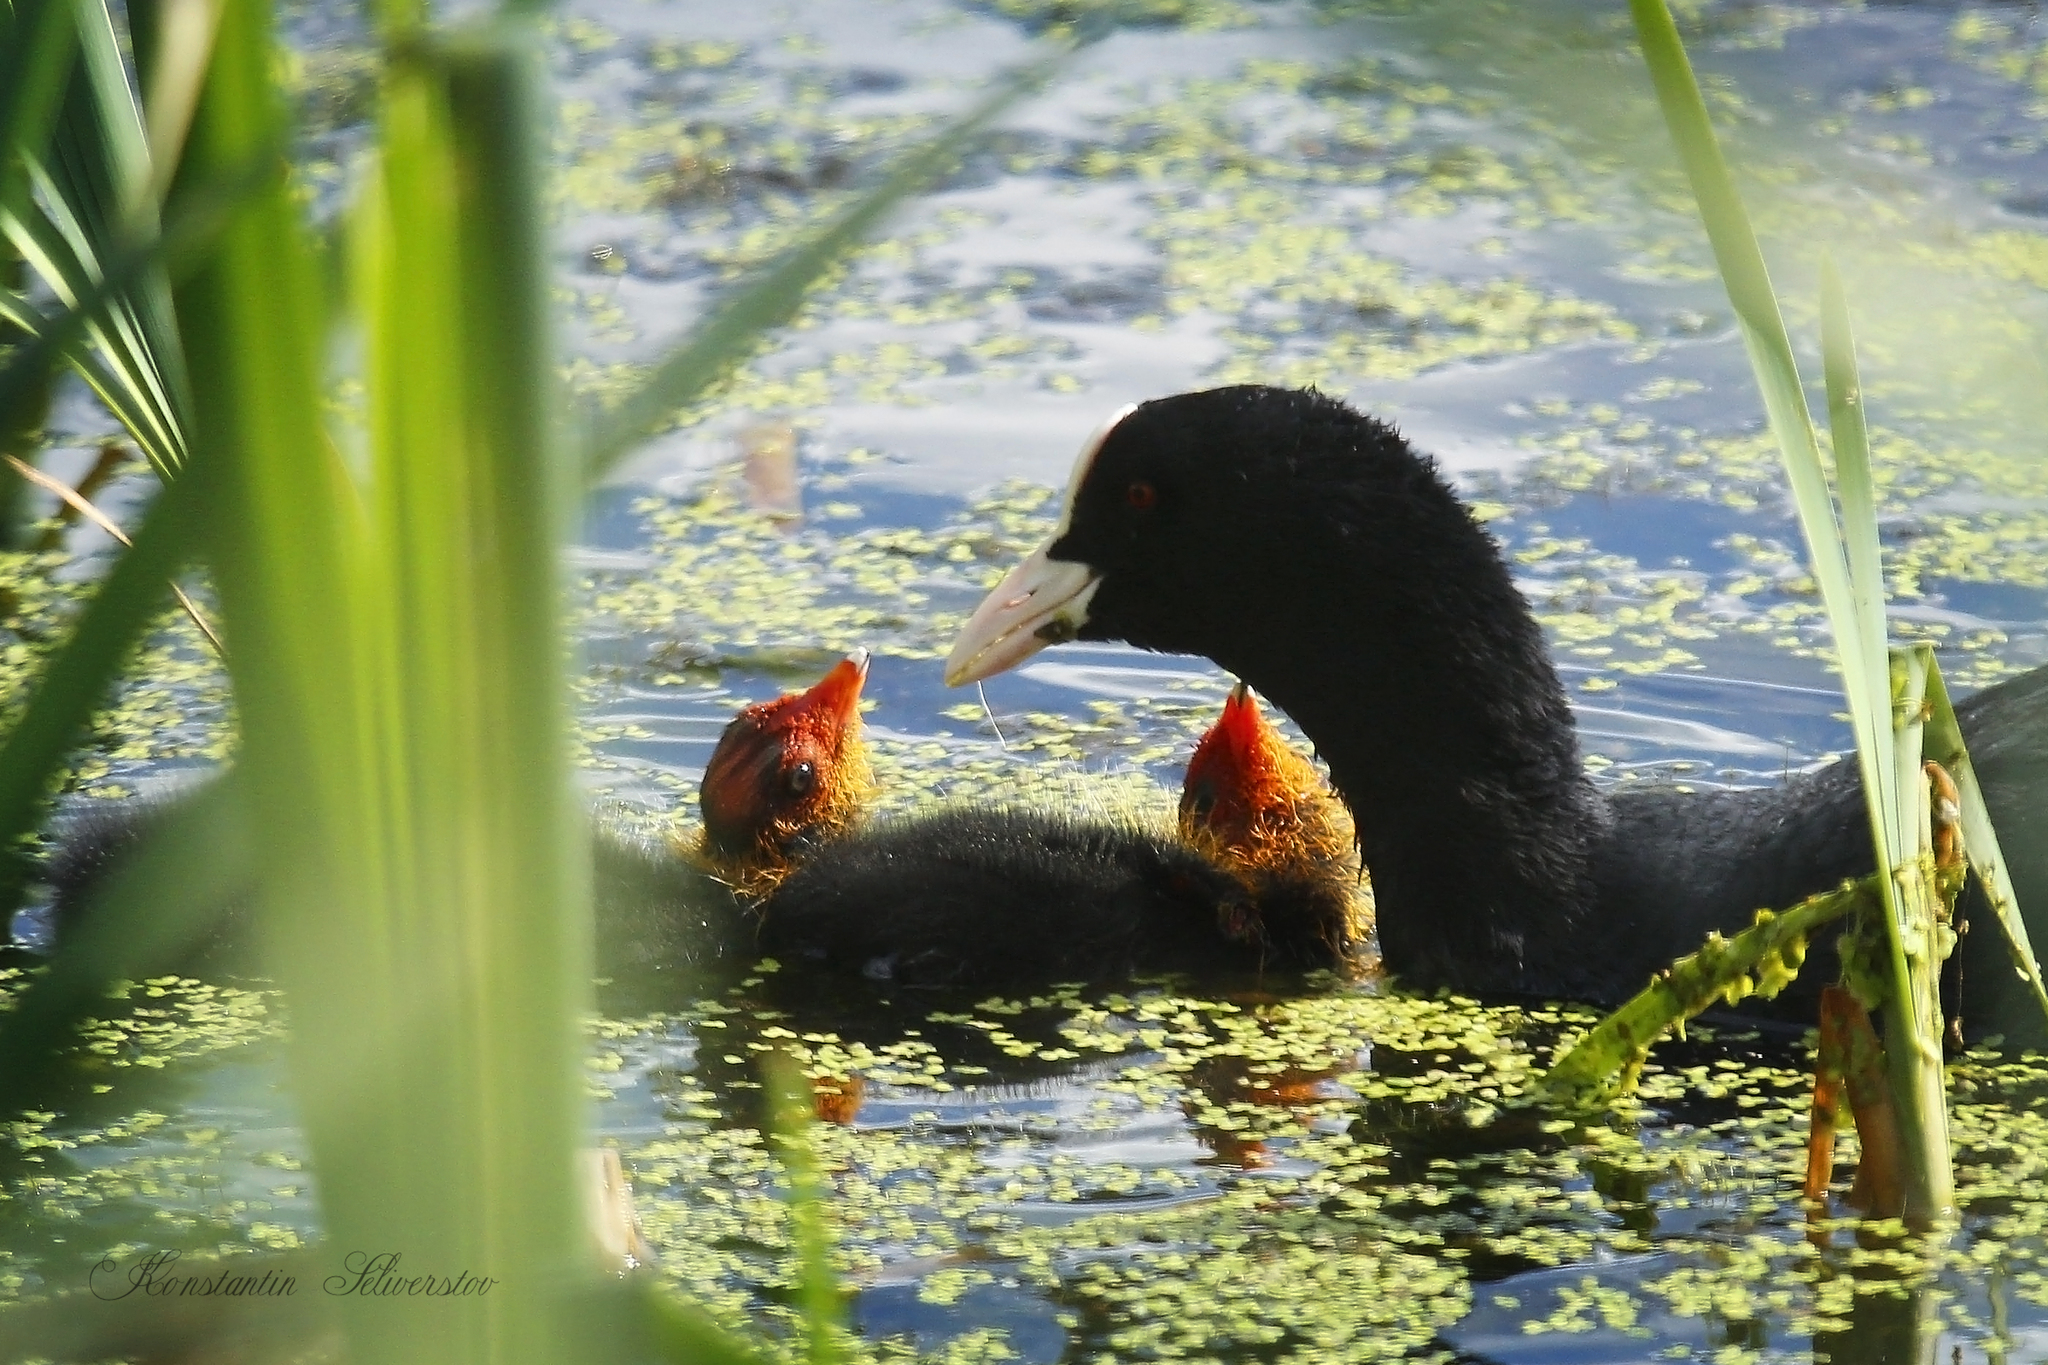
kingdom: Animalia
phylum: Chordata
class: Aves
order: Gruiformes
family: Rallidae
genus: Fulica
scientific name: Fulica atra
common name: Eurasian coot
